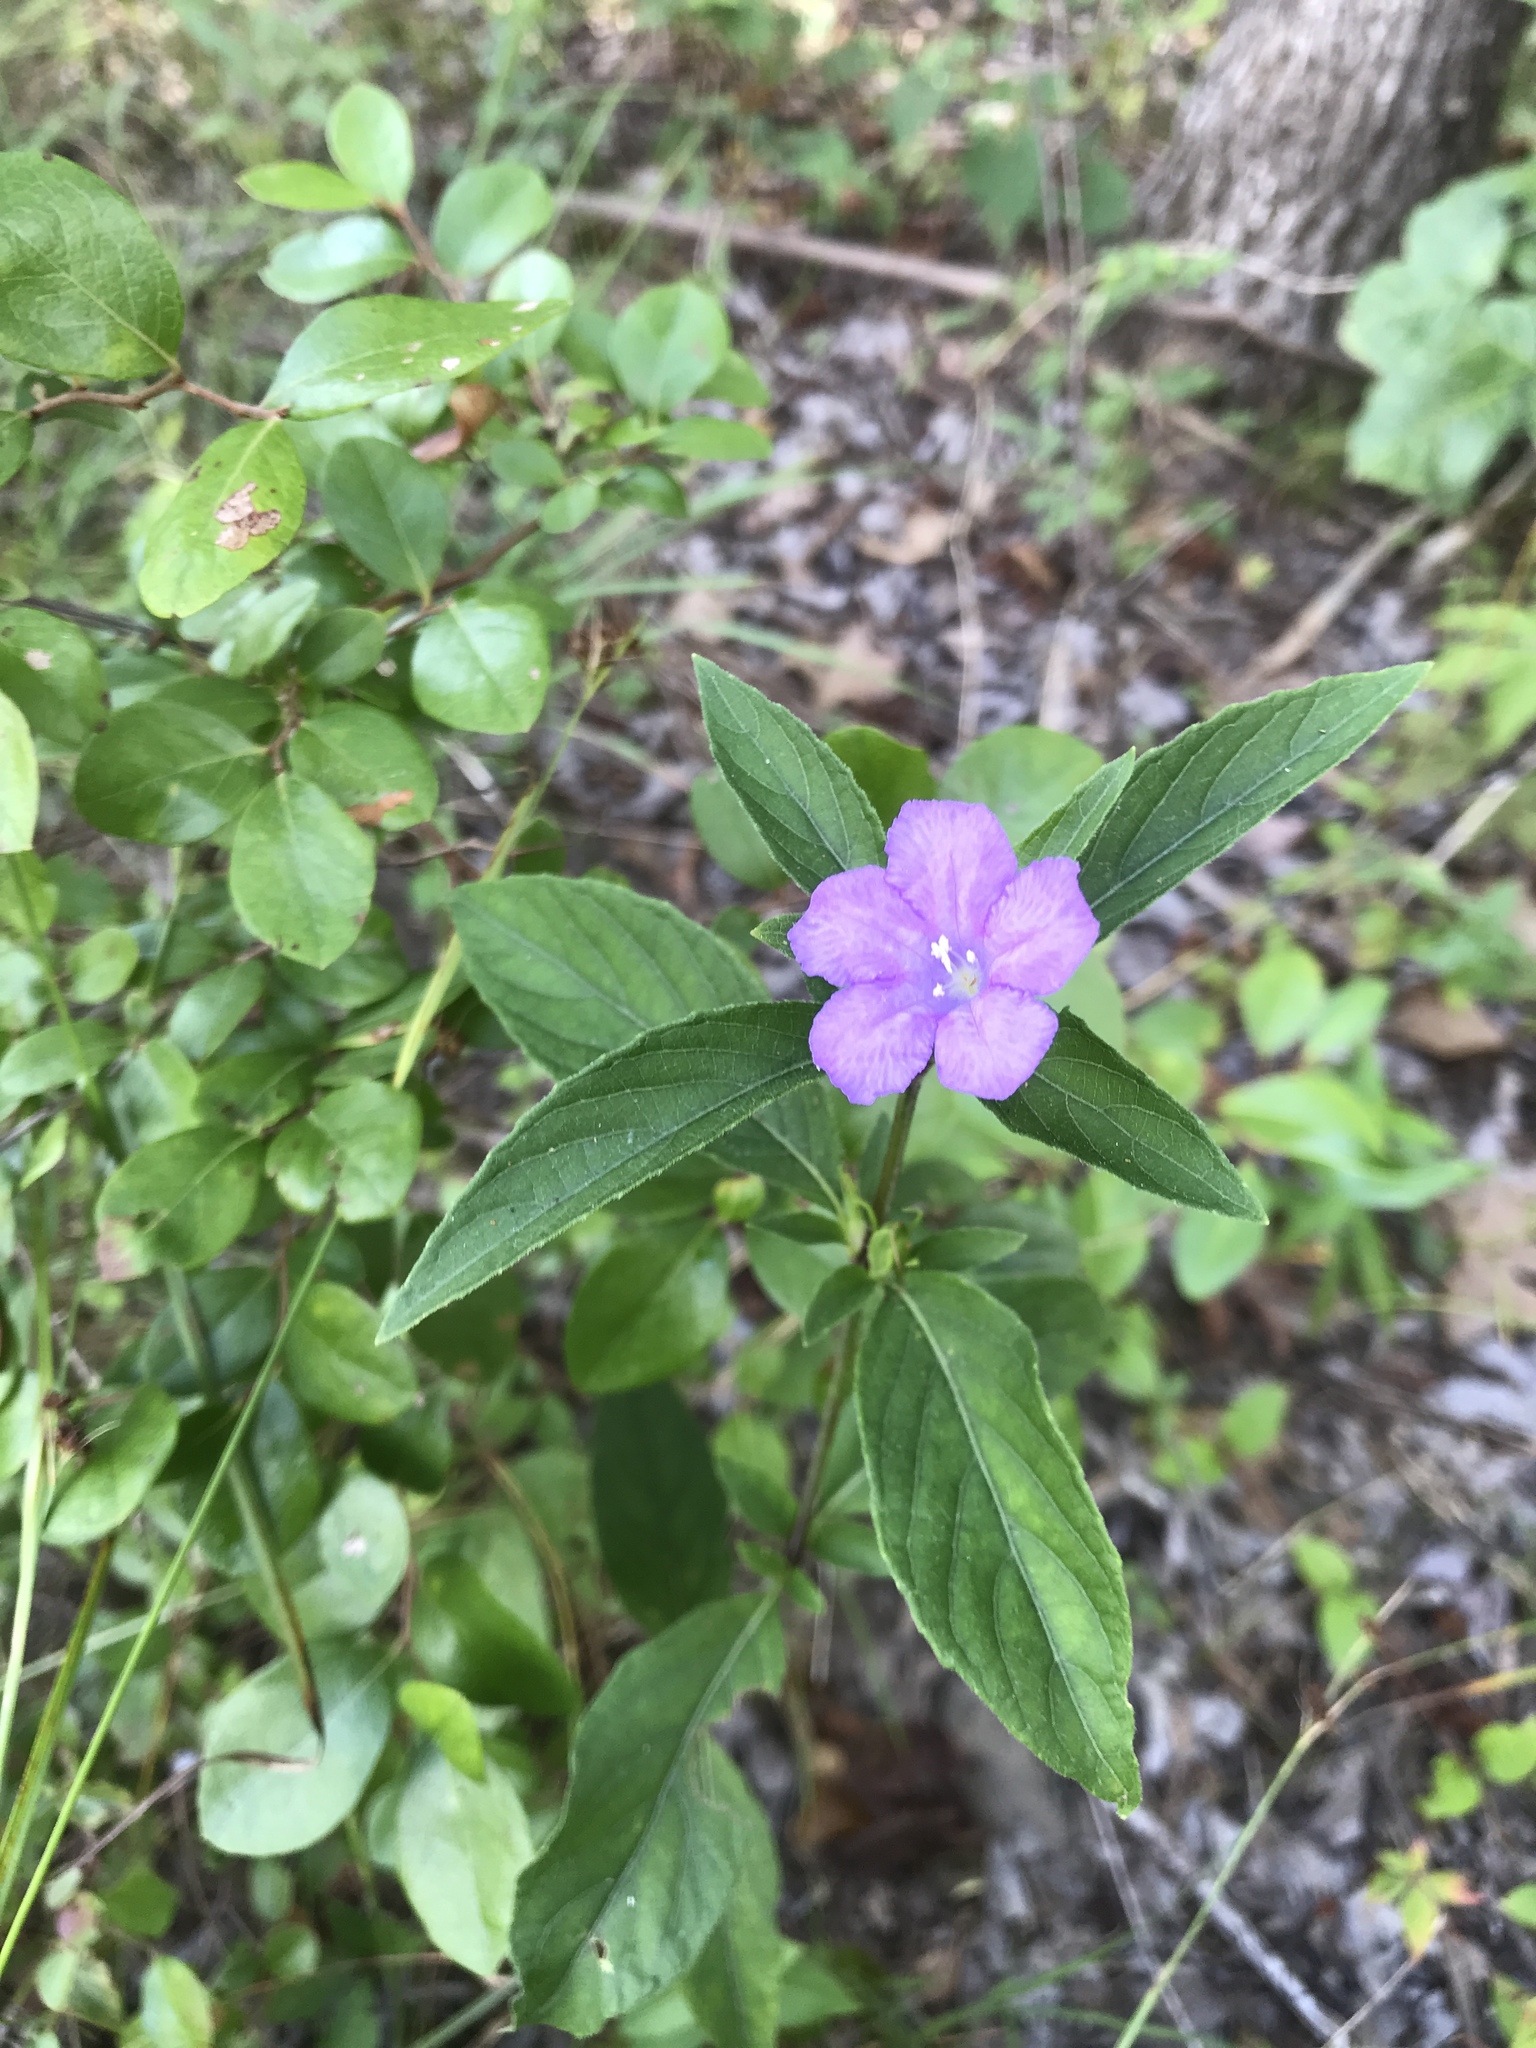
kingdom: Plantae
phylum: Tracheophyta
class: Magnoliopsida
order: Lamiales
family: Acanthaceae
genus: Ruellia
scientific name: Ruellia caroliniensis
